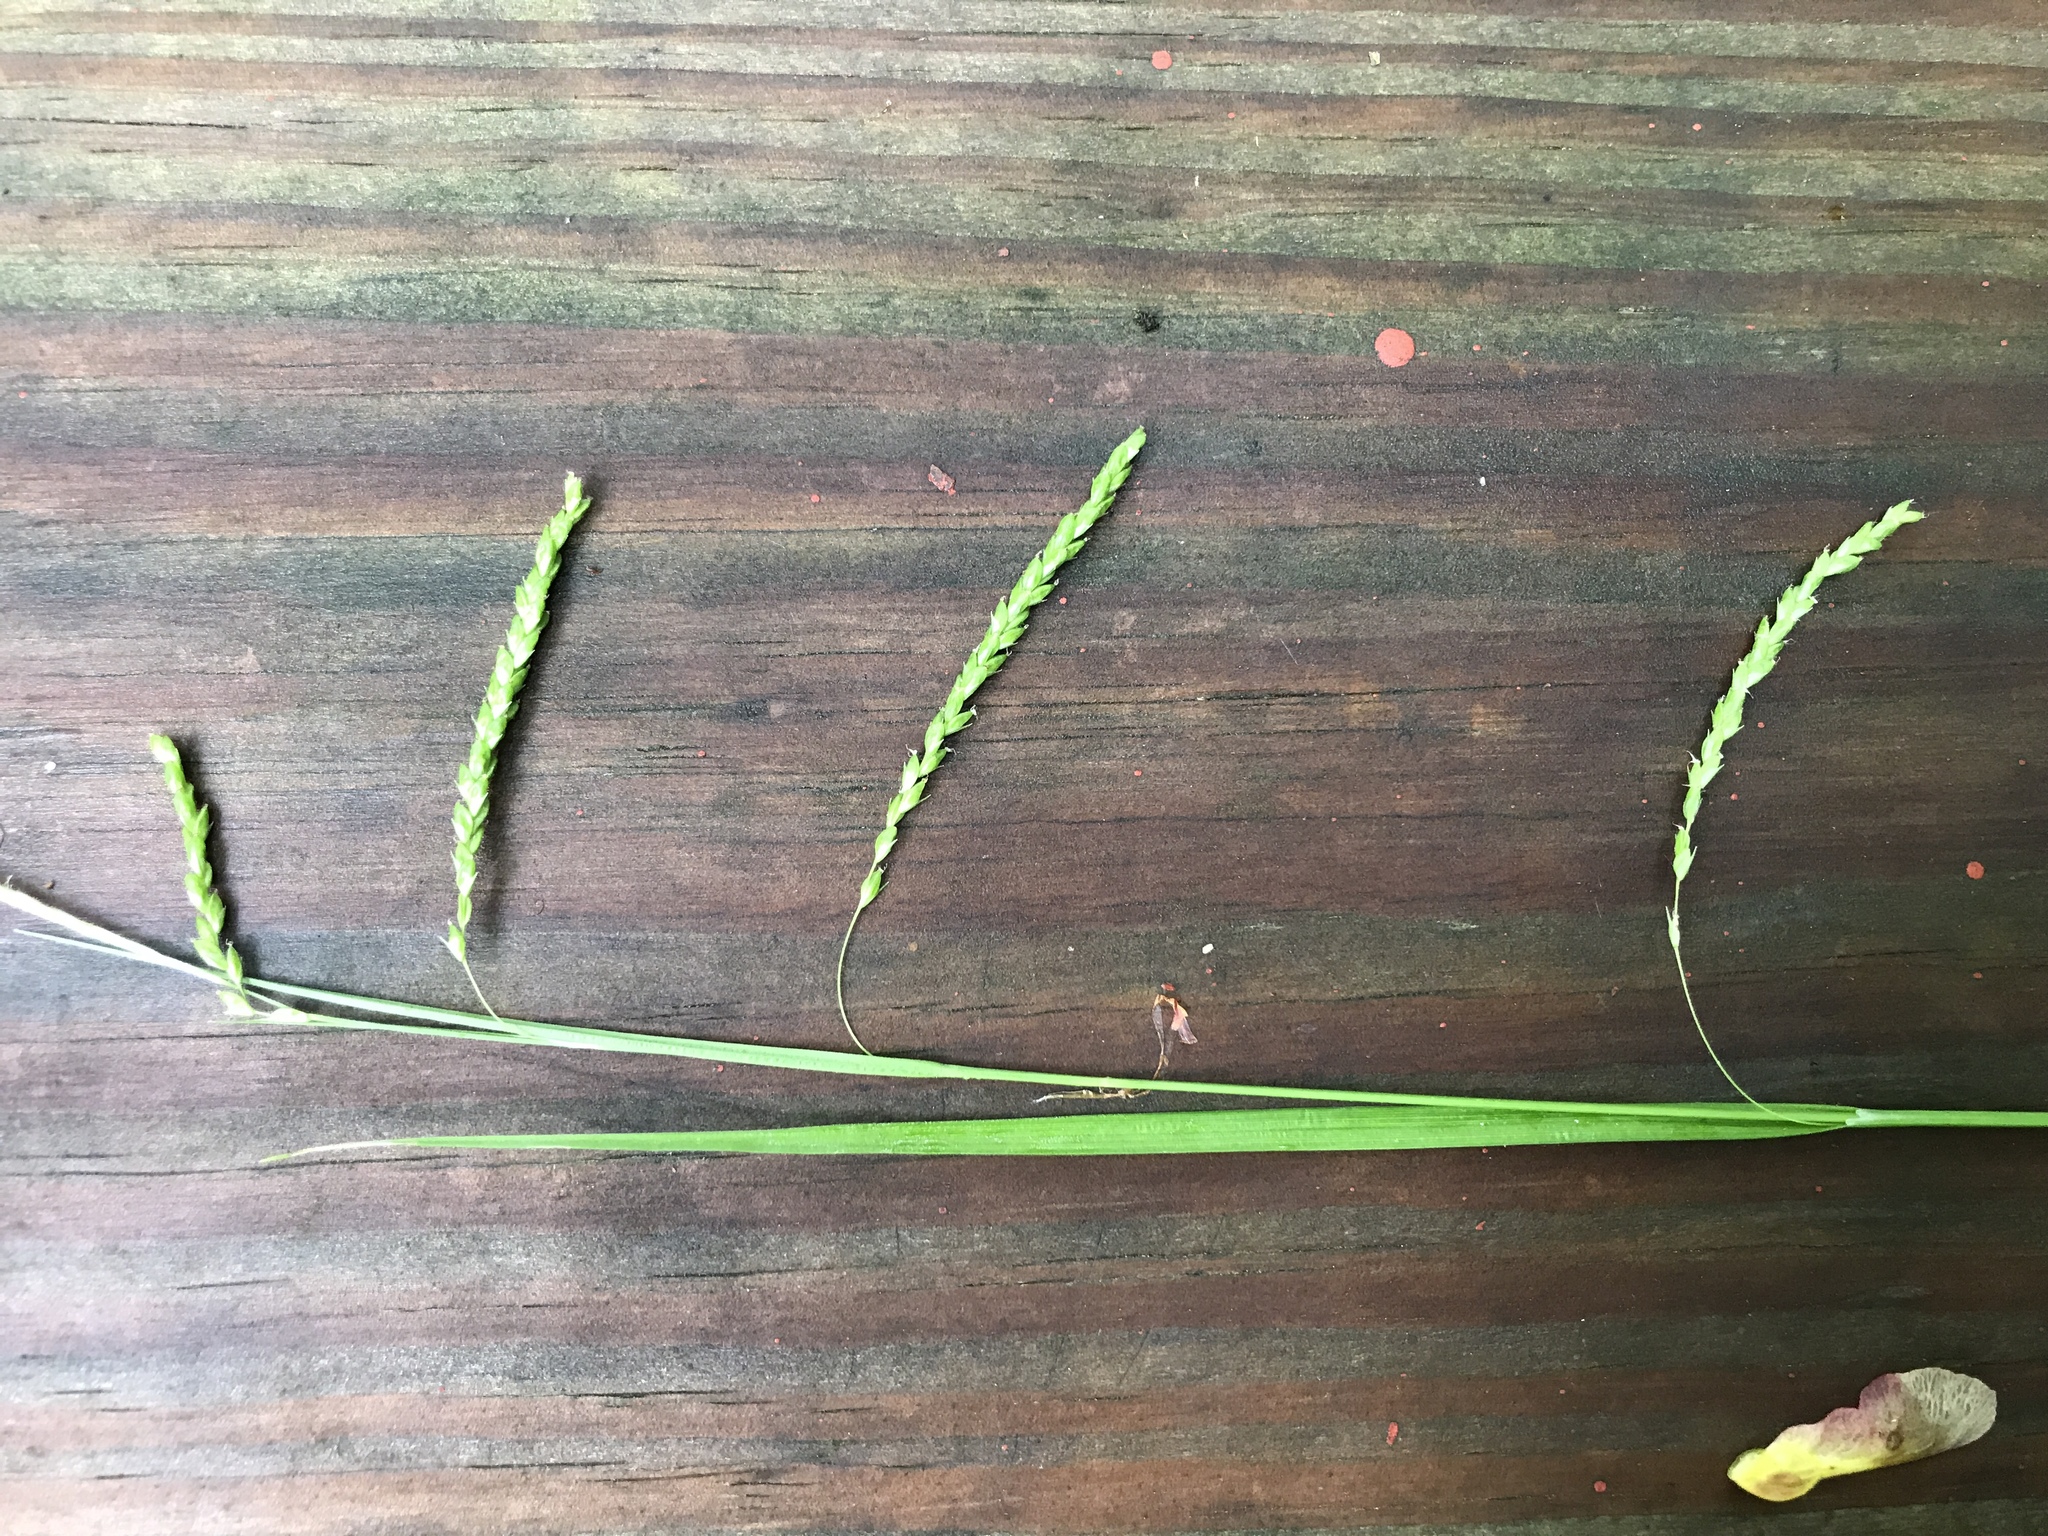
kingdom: Plantae
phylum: Tracheophyta
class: Liliopsida
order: Poales
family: Cyperaceae
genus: Carex
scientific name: Carex gracillima
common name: Graceful sedge
